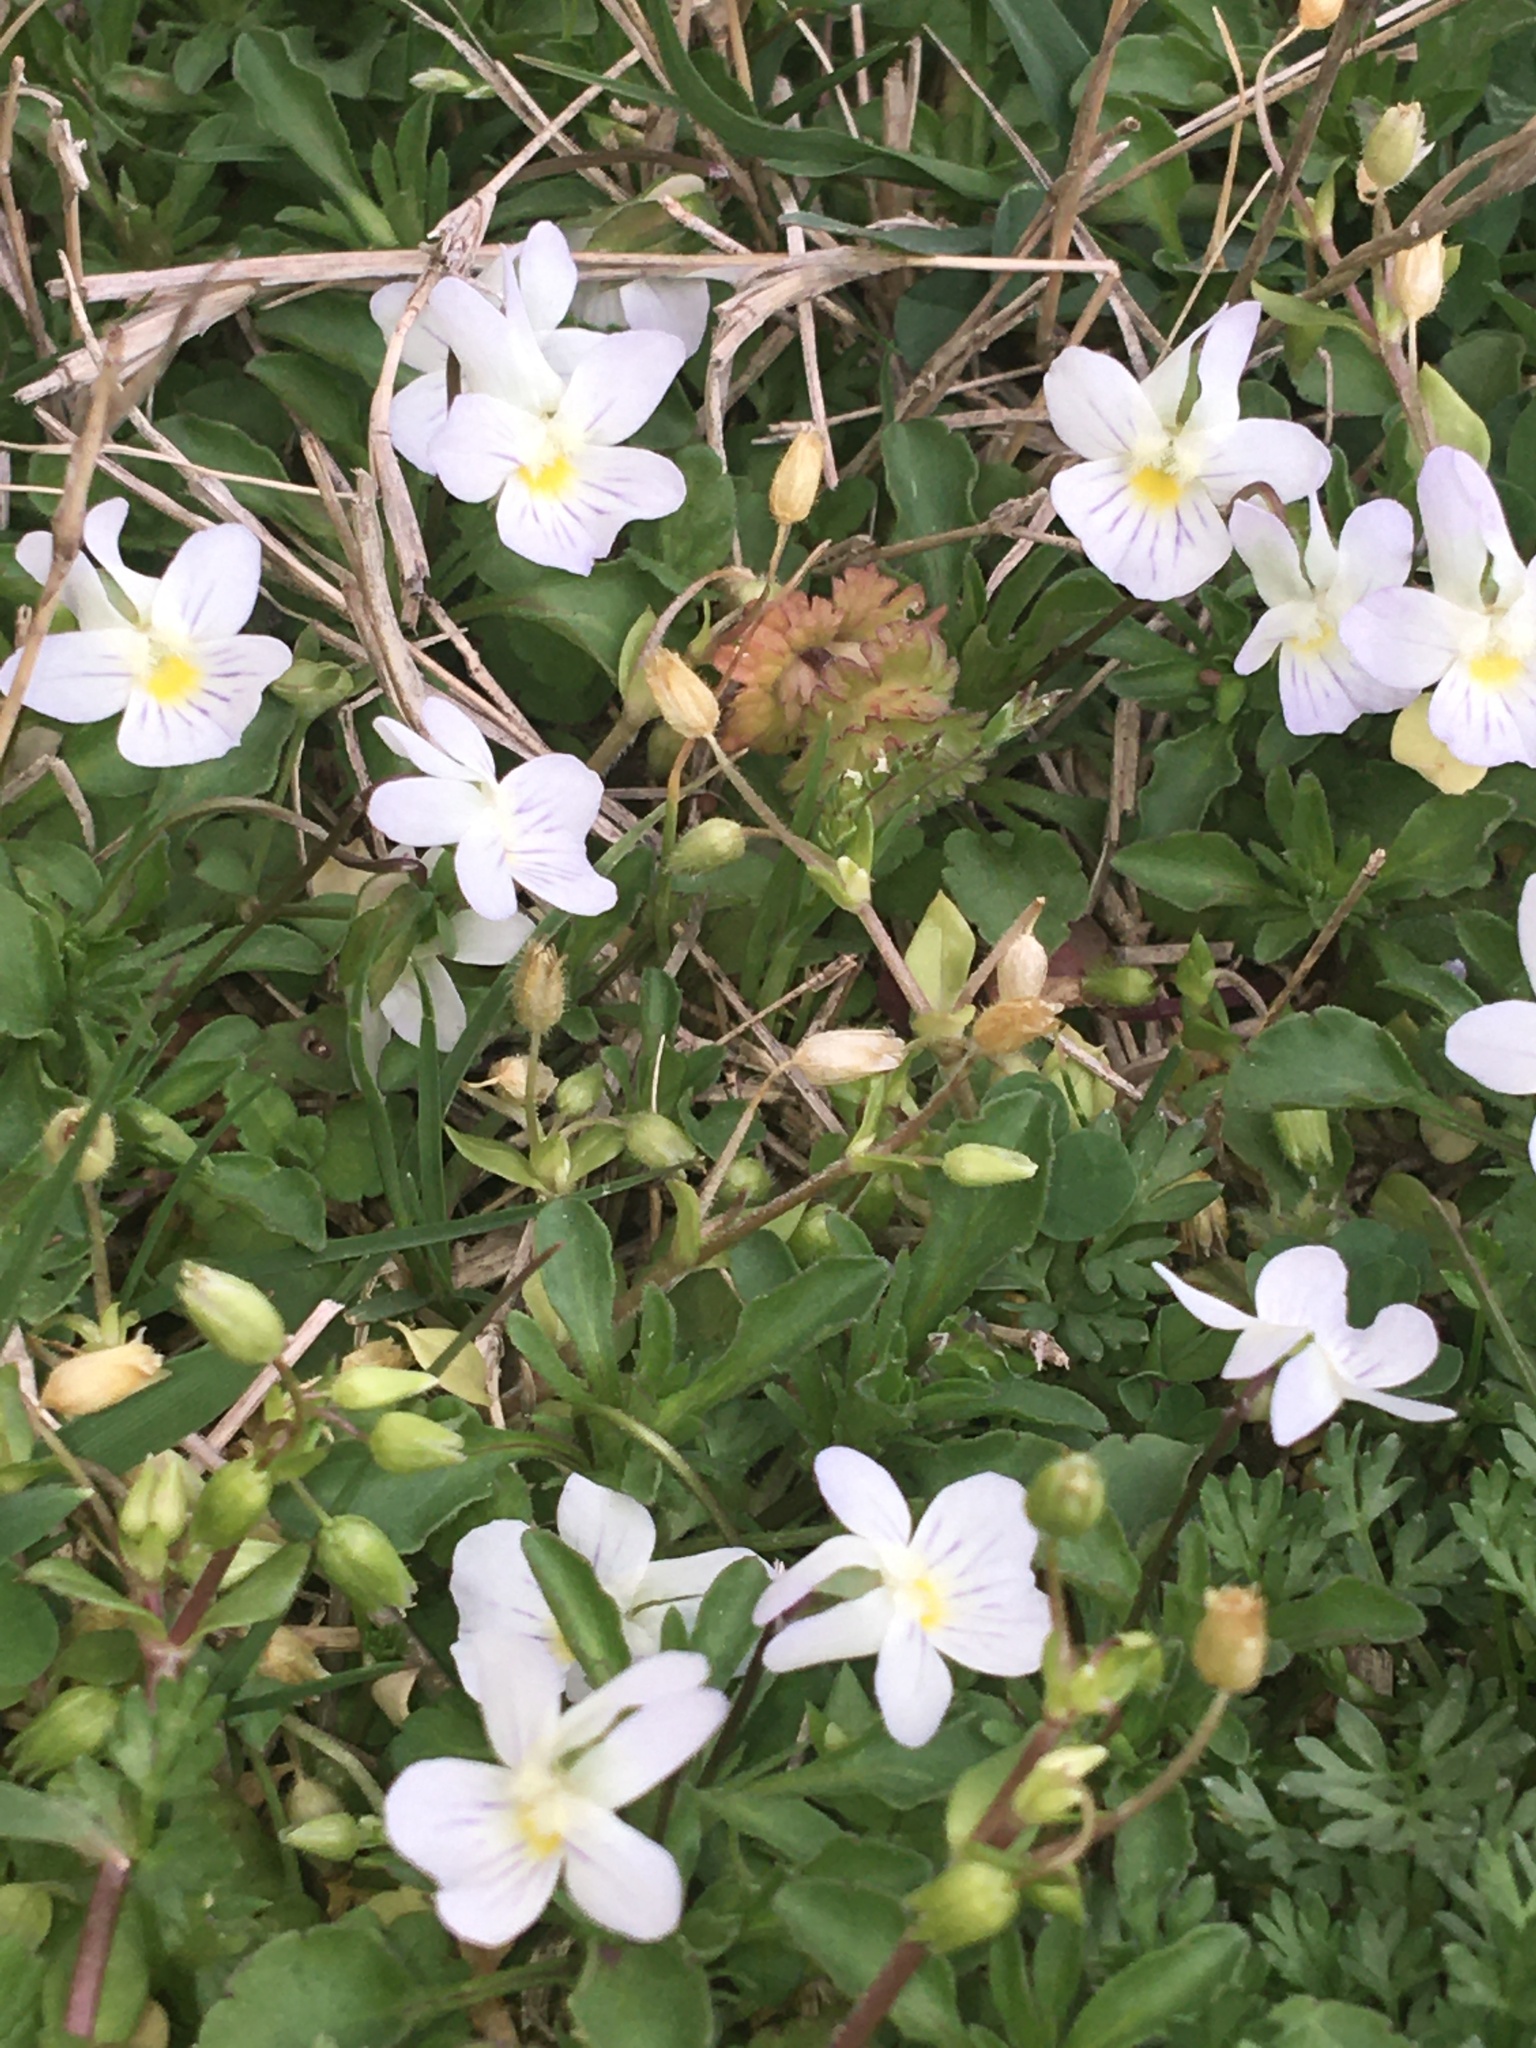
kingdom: Plantae
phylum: Tracheophyta
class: Magnoliopsida
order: Malpighiales
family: Violaceae
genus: Viola
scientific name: Viola rafinesquei
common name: American field pansy
